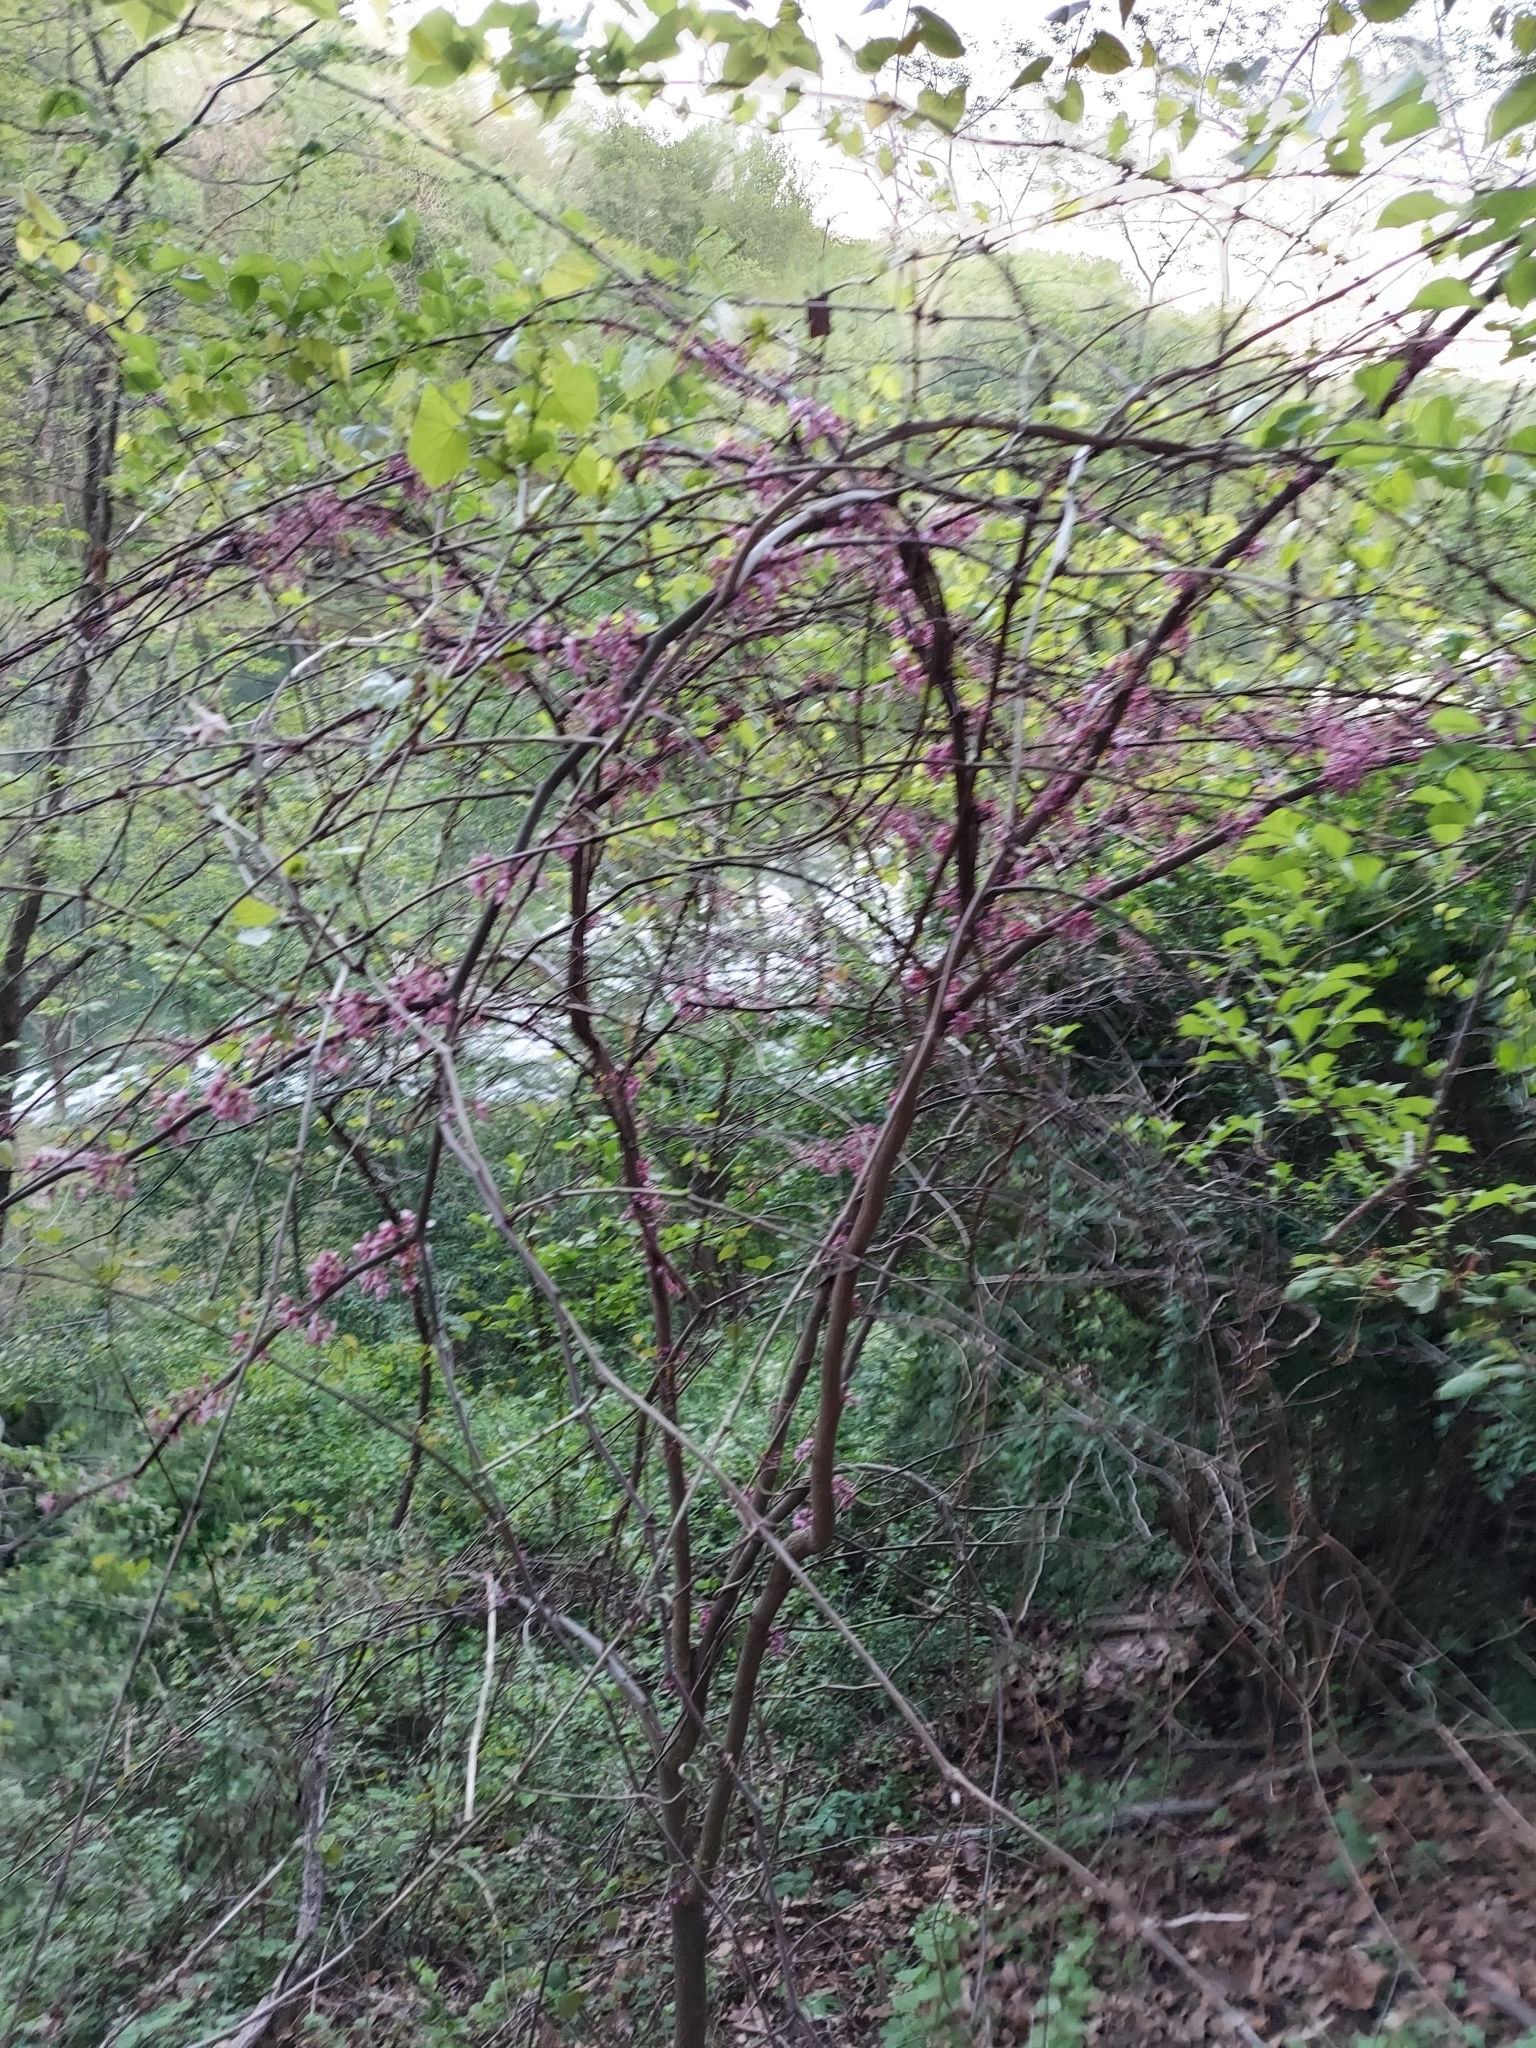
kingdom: Plantae
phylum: Tracheophyta
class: Magnoliopsida
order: Fabales
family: Fabaceae
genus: Cercis
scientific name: Cercis canadensis
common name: Eastern redbud
